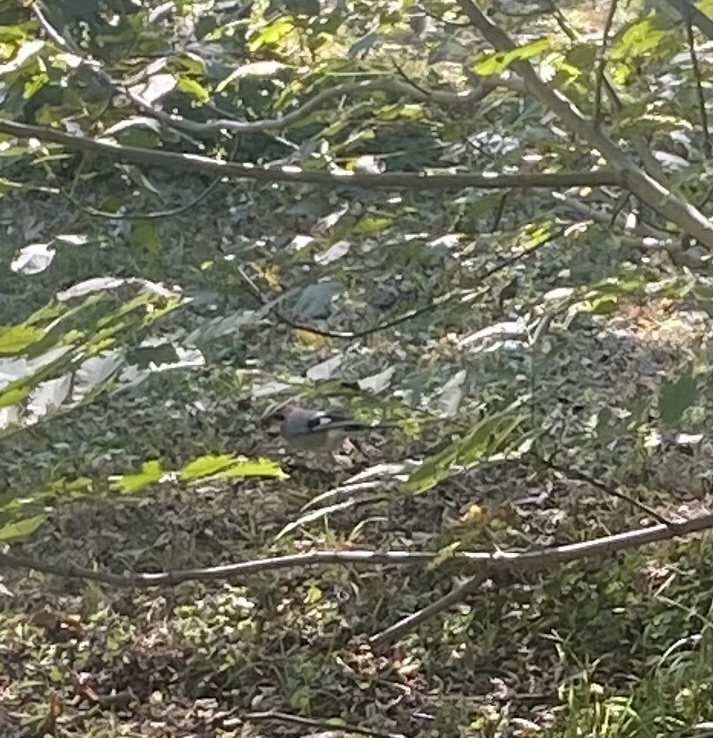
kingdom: Animalia
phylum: Chordata
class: Aves
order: Passeriformes
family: Corvidae
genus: Garrulus
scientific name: Garrulus glandarius
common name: Eurasian jay
